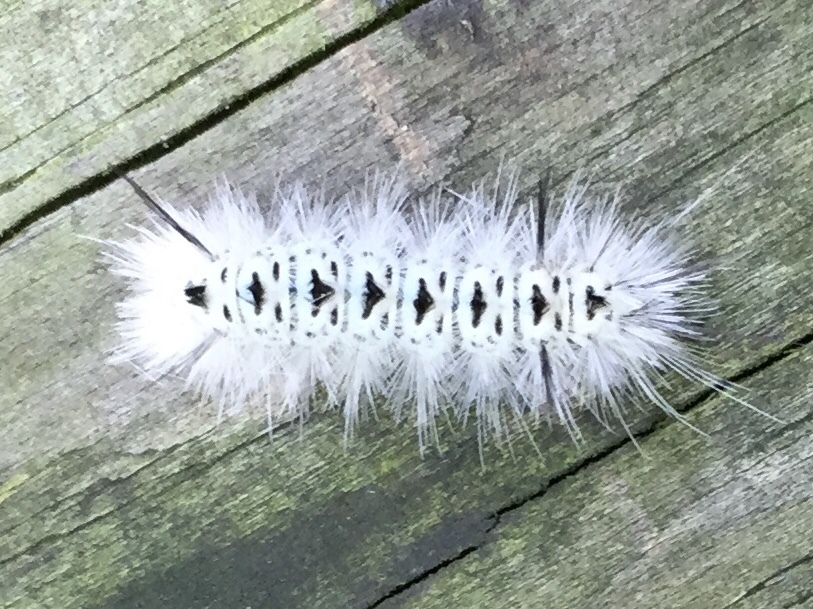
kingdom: Animalia
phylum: Arthropoda
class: Insecta
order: Lepidoptera
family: Erebidae
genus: Lophocampa
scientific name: Lophocampa caryae
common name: Hickory tussock moth
